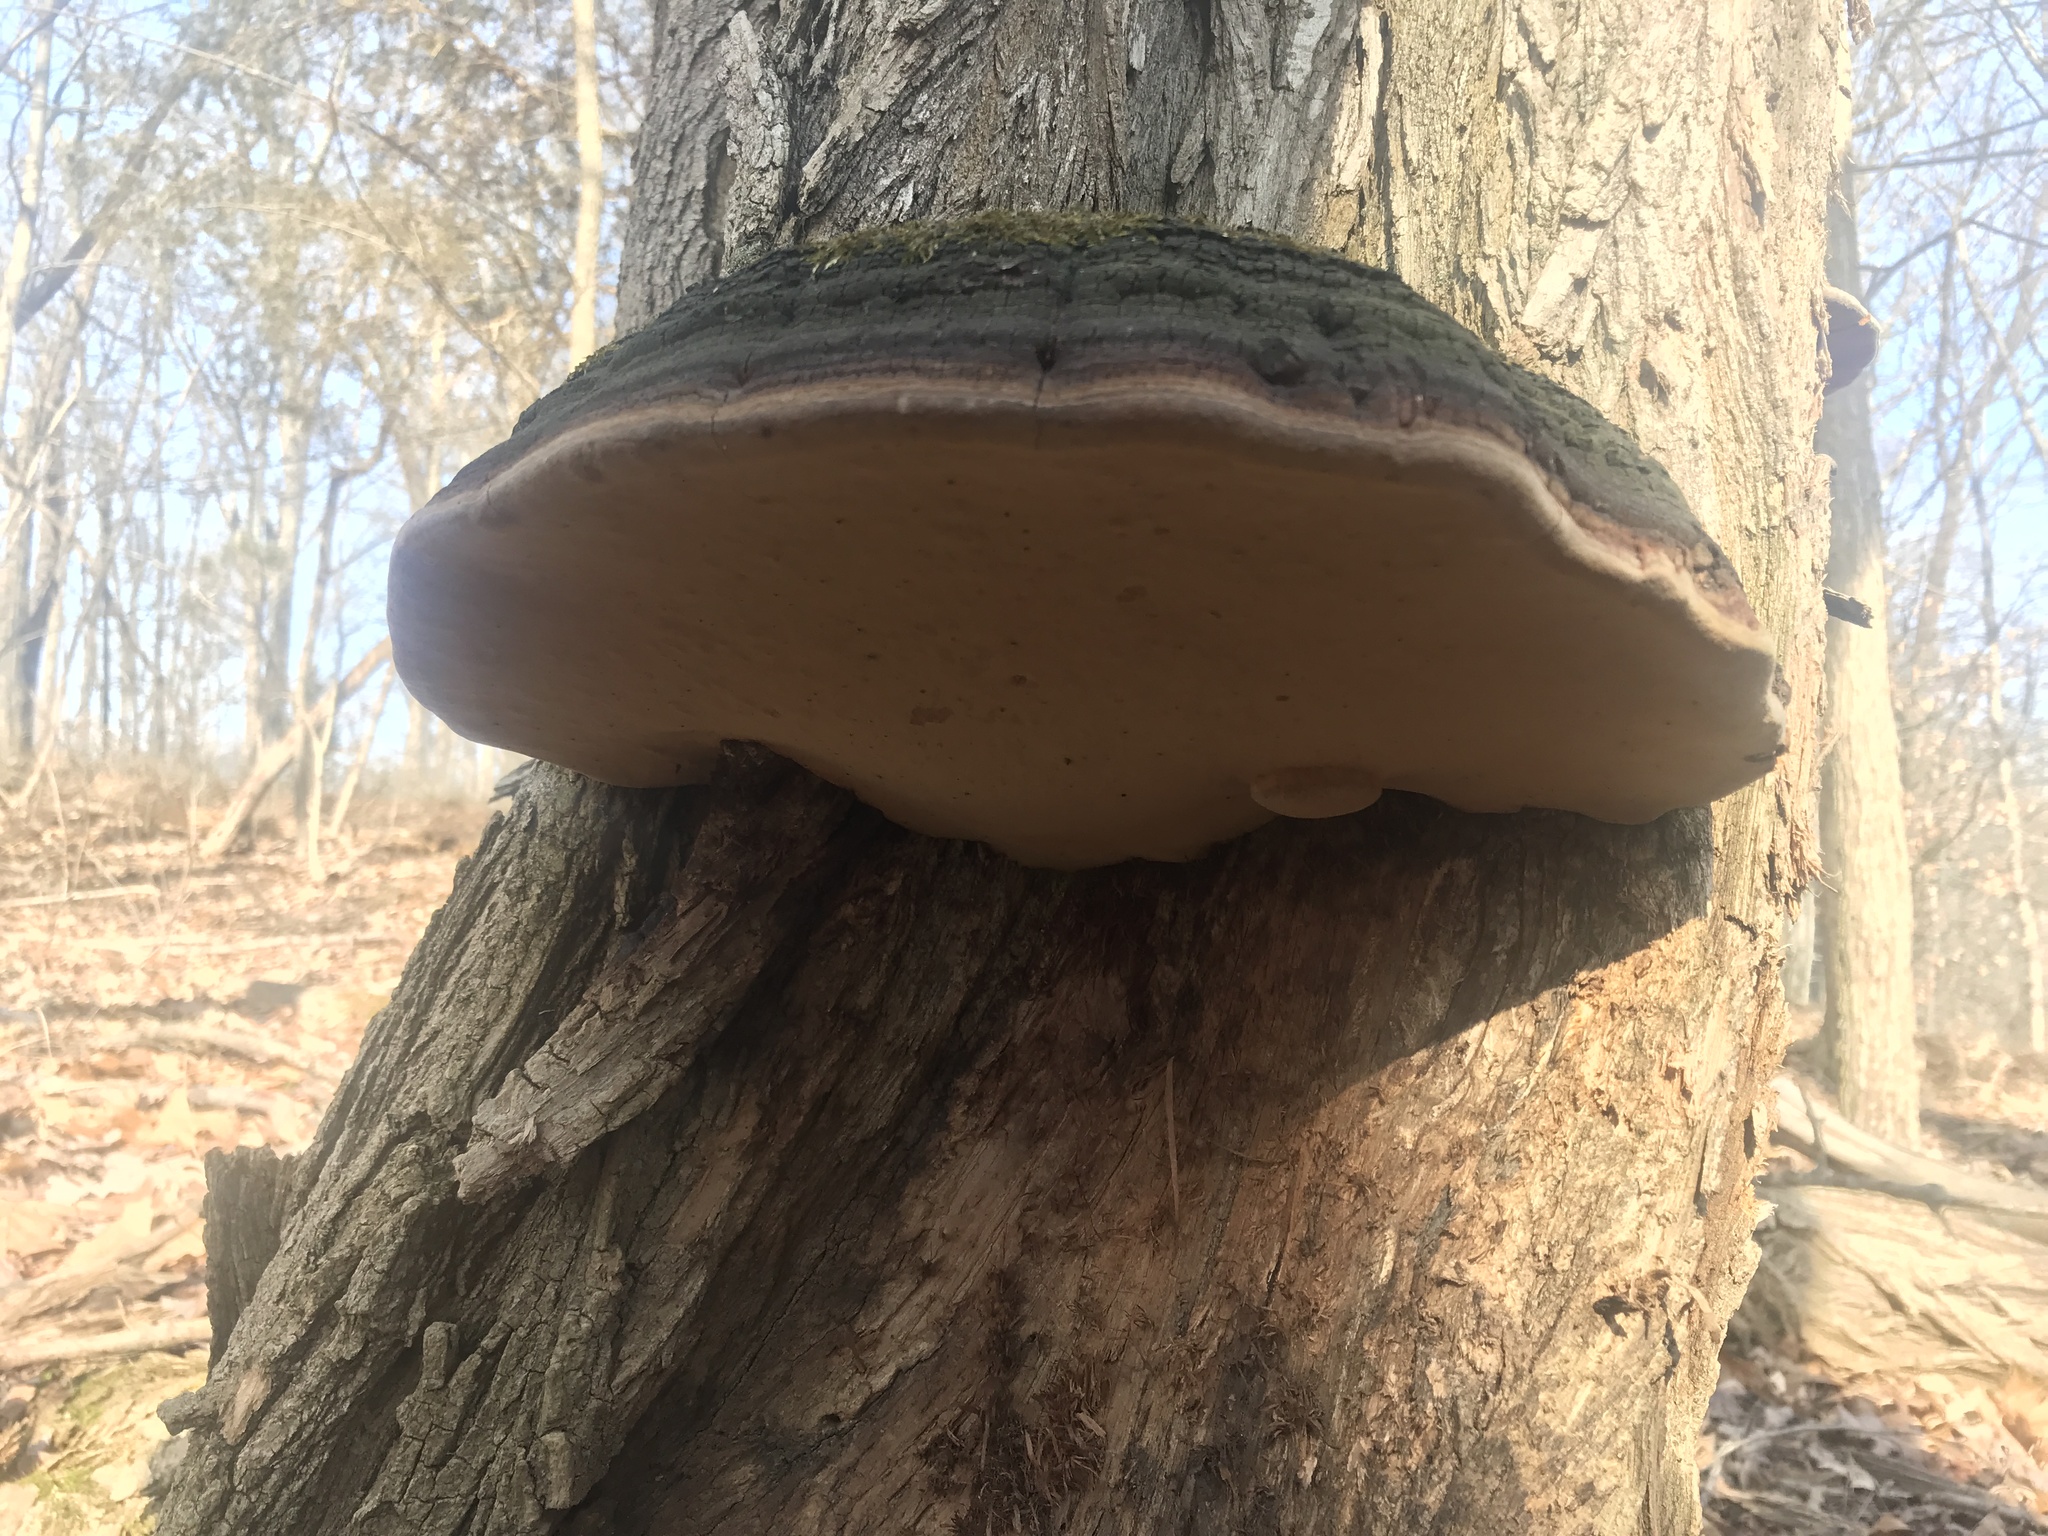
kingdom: Fungi
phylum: Basidiomycota
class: Agaricomycetes
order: Hymenochaetales
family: Hymenochaetaceae
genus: Phellinus
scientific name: Phellinus robiniae
